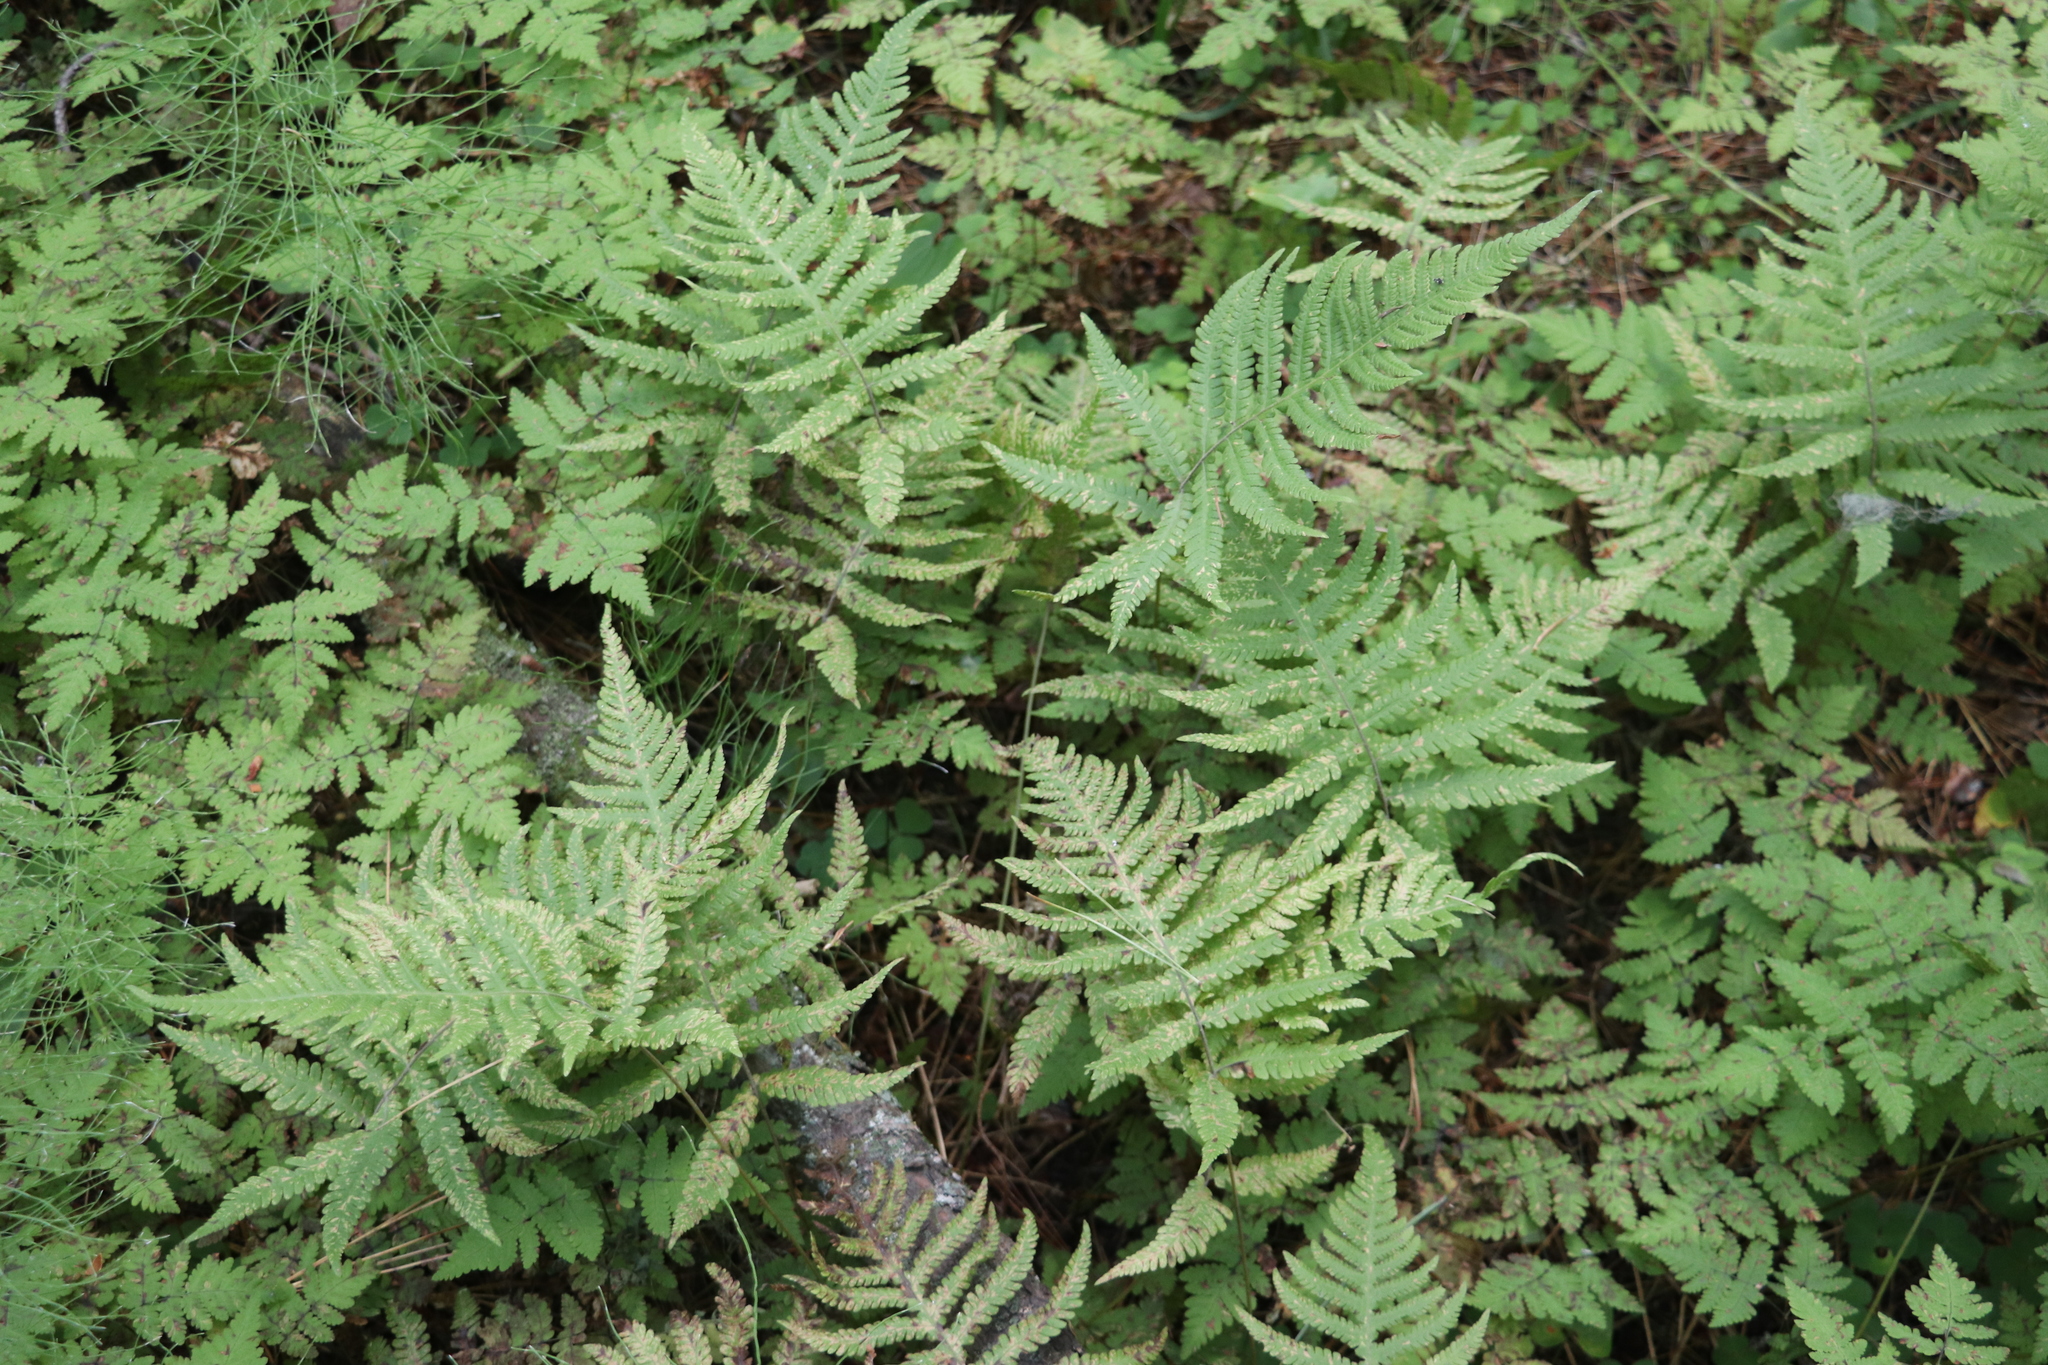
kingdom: Plantae
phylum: Tracheophyta
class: Polypodiopsida
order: Polypodiales
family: Thelypteridaceae
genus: Phegopteris
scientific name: Phegopteris connectilis
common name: Beech fern
